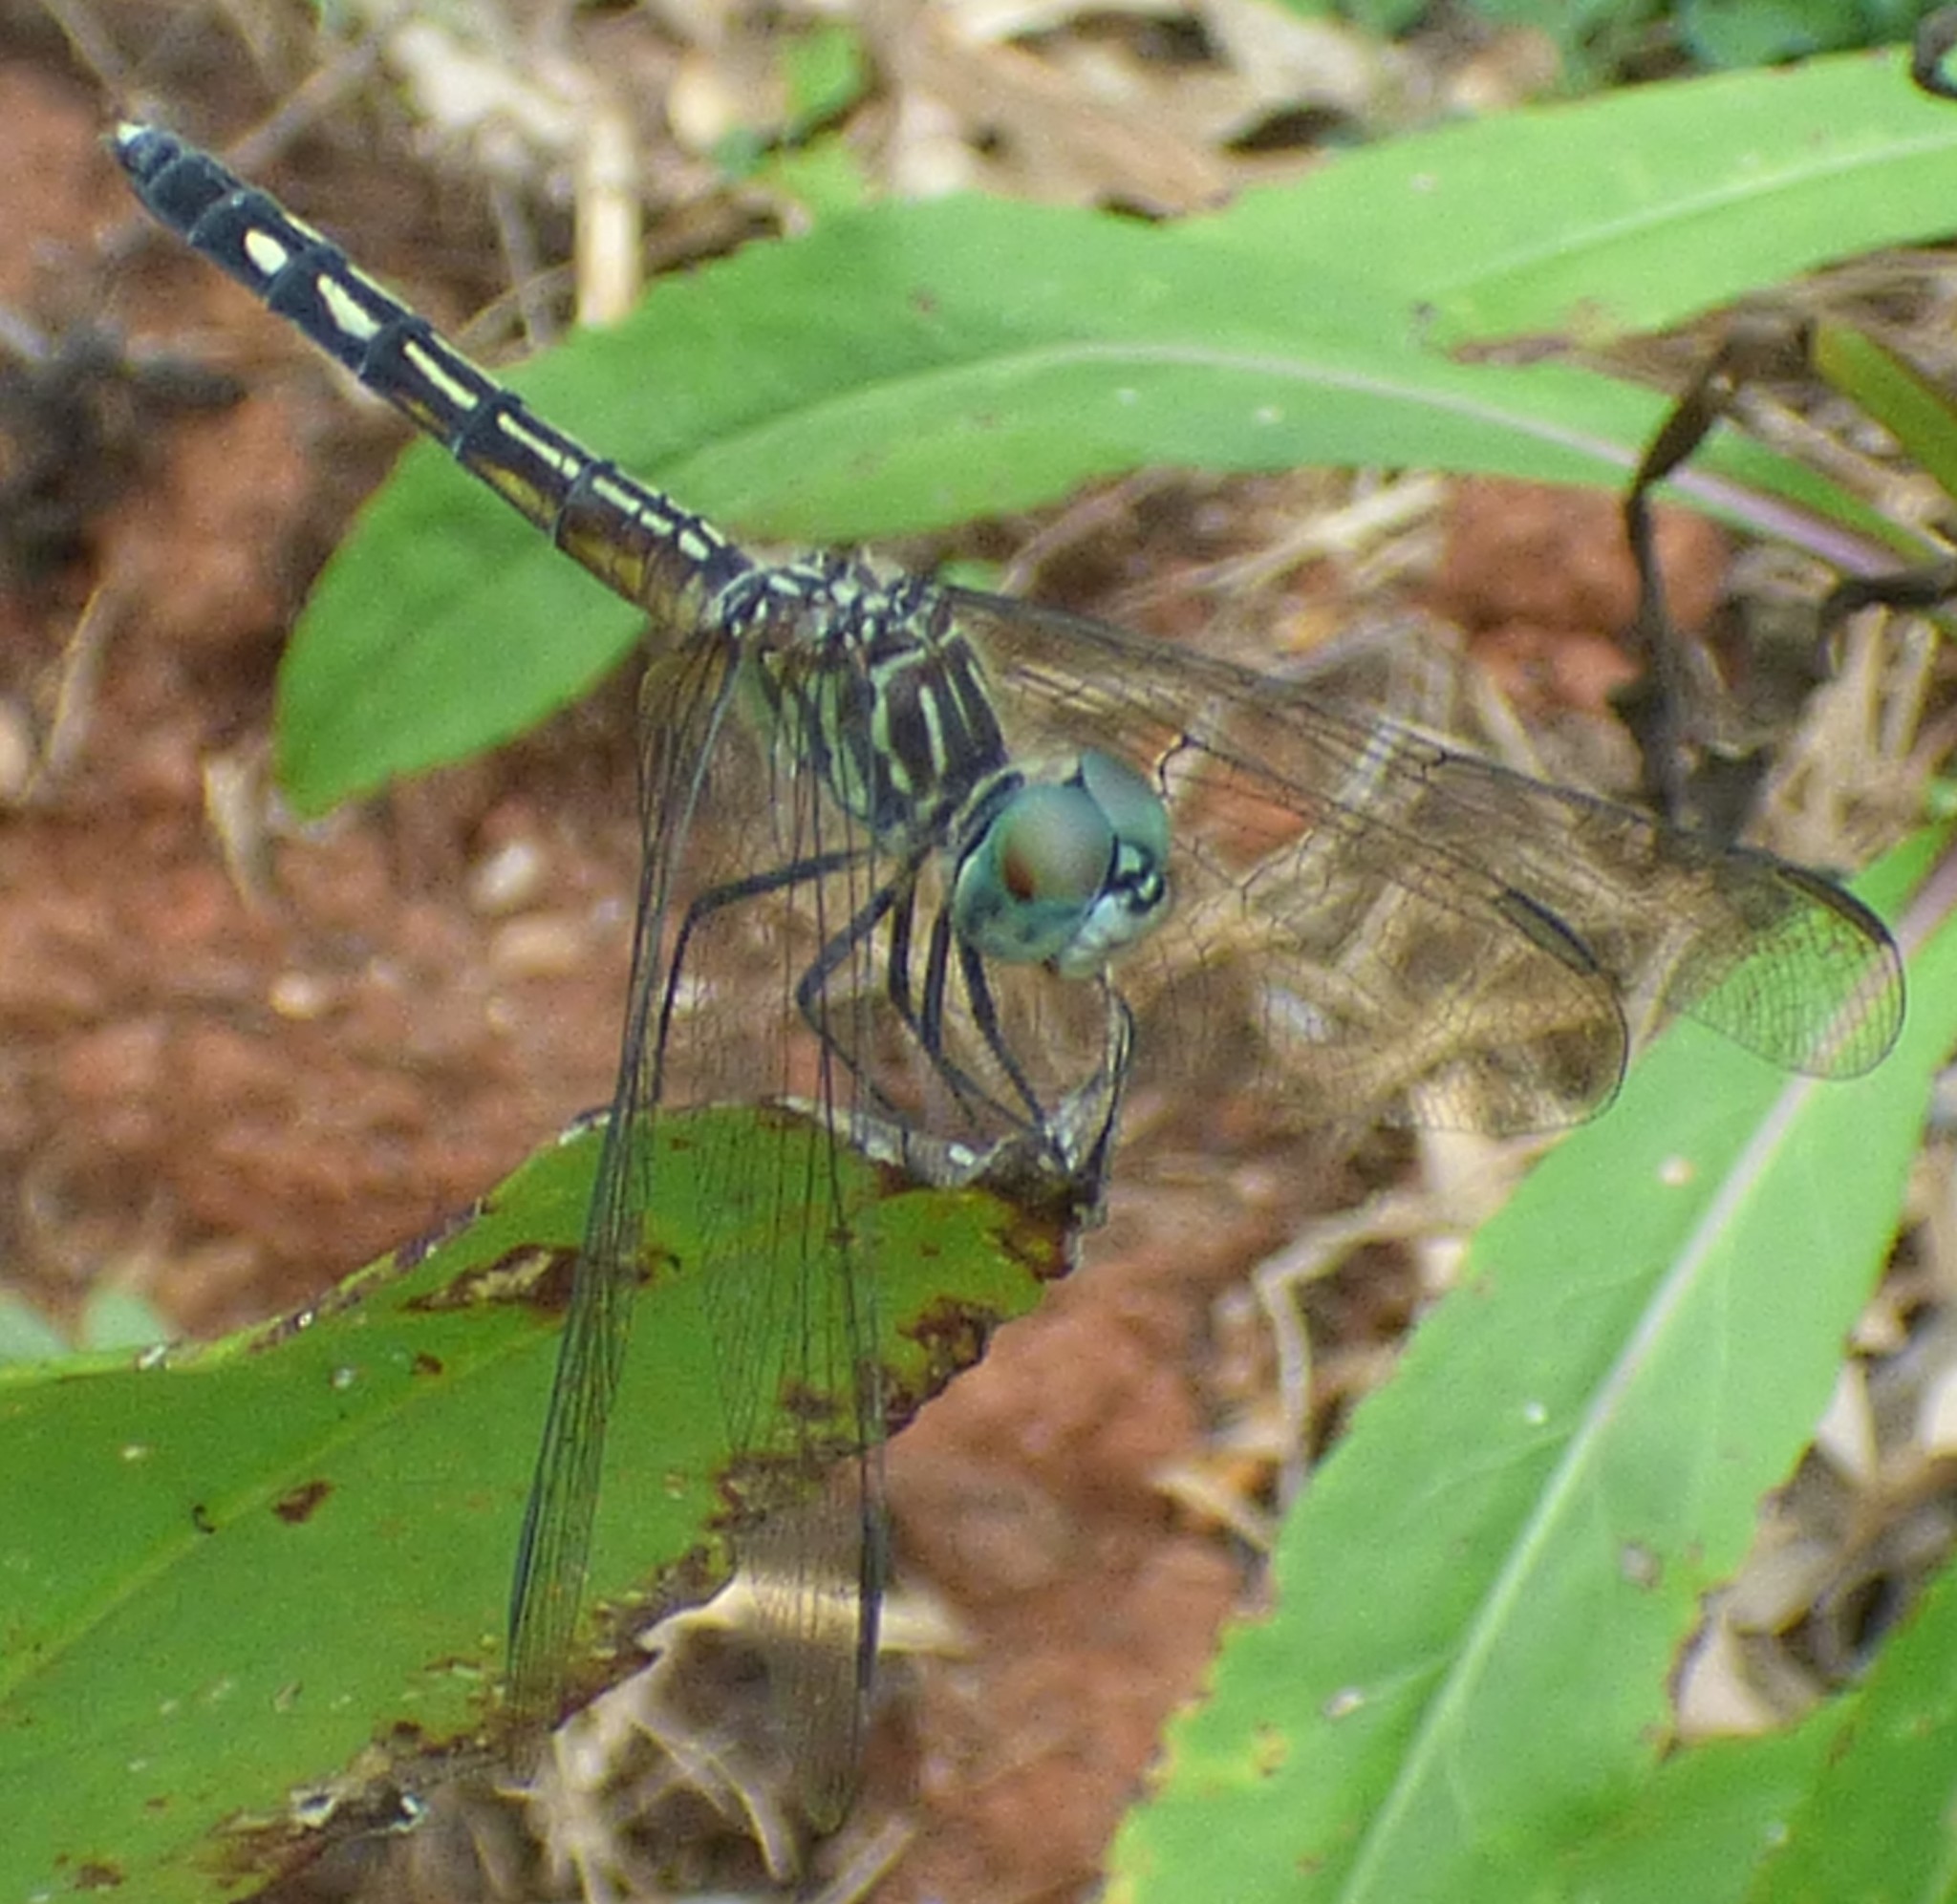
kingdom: Animalia
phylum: Arthropoda
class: Insecta
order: Odonata
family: Libellulidae
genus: Pachydiplax
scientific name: Pachydiplax longipennis
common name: Blue dasher
